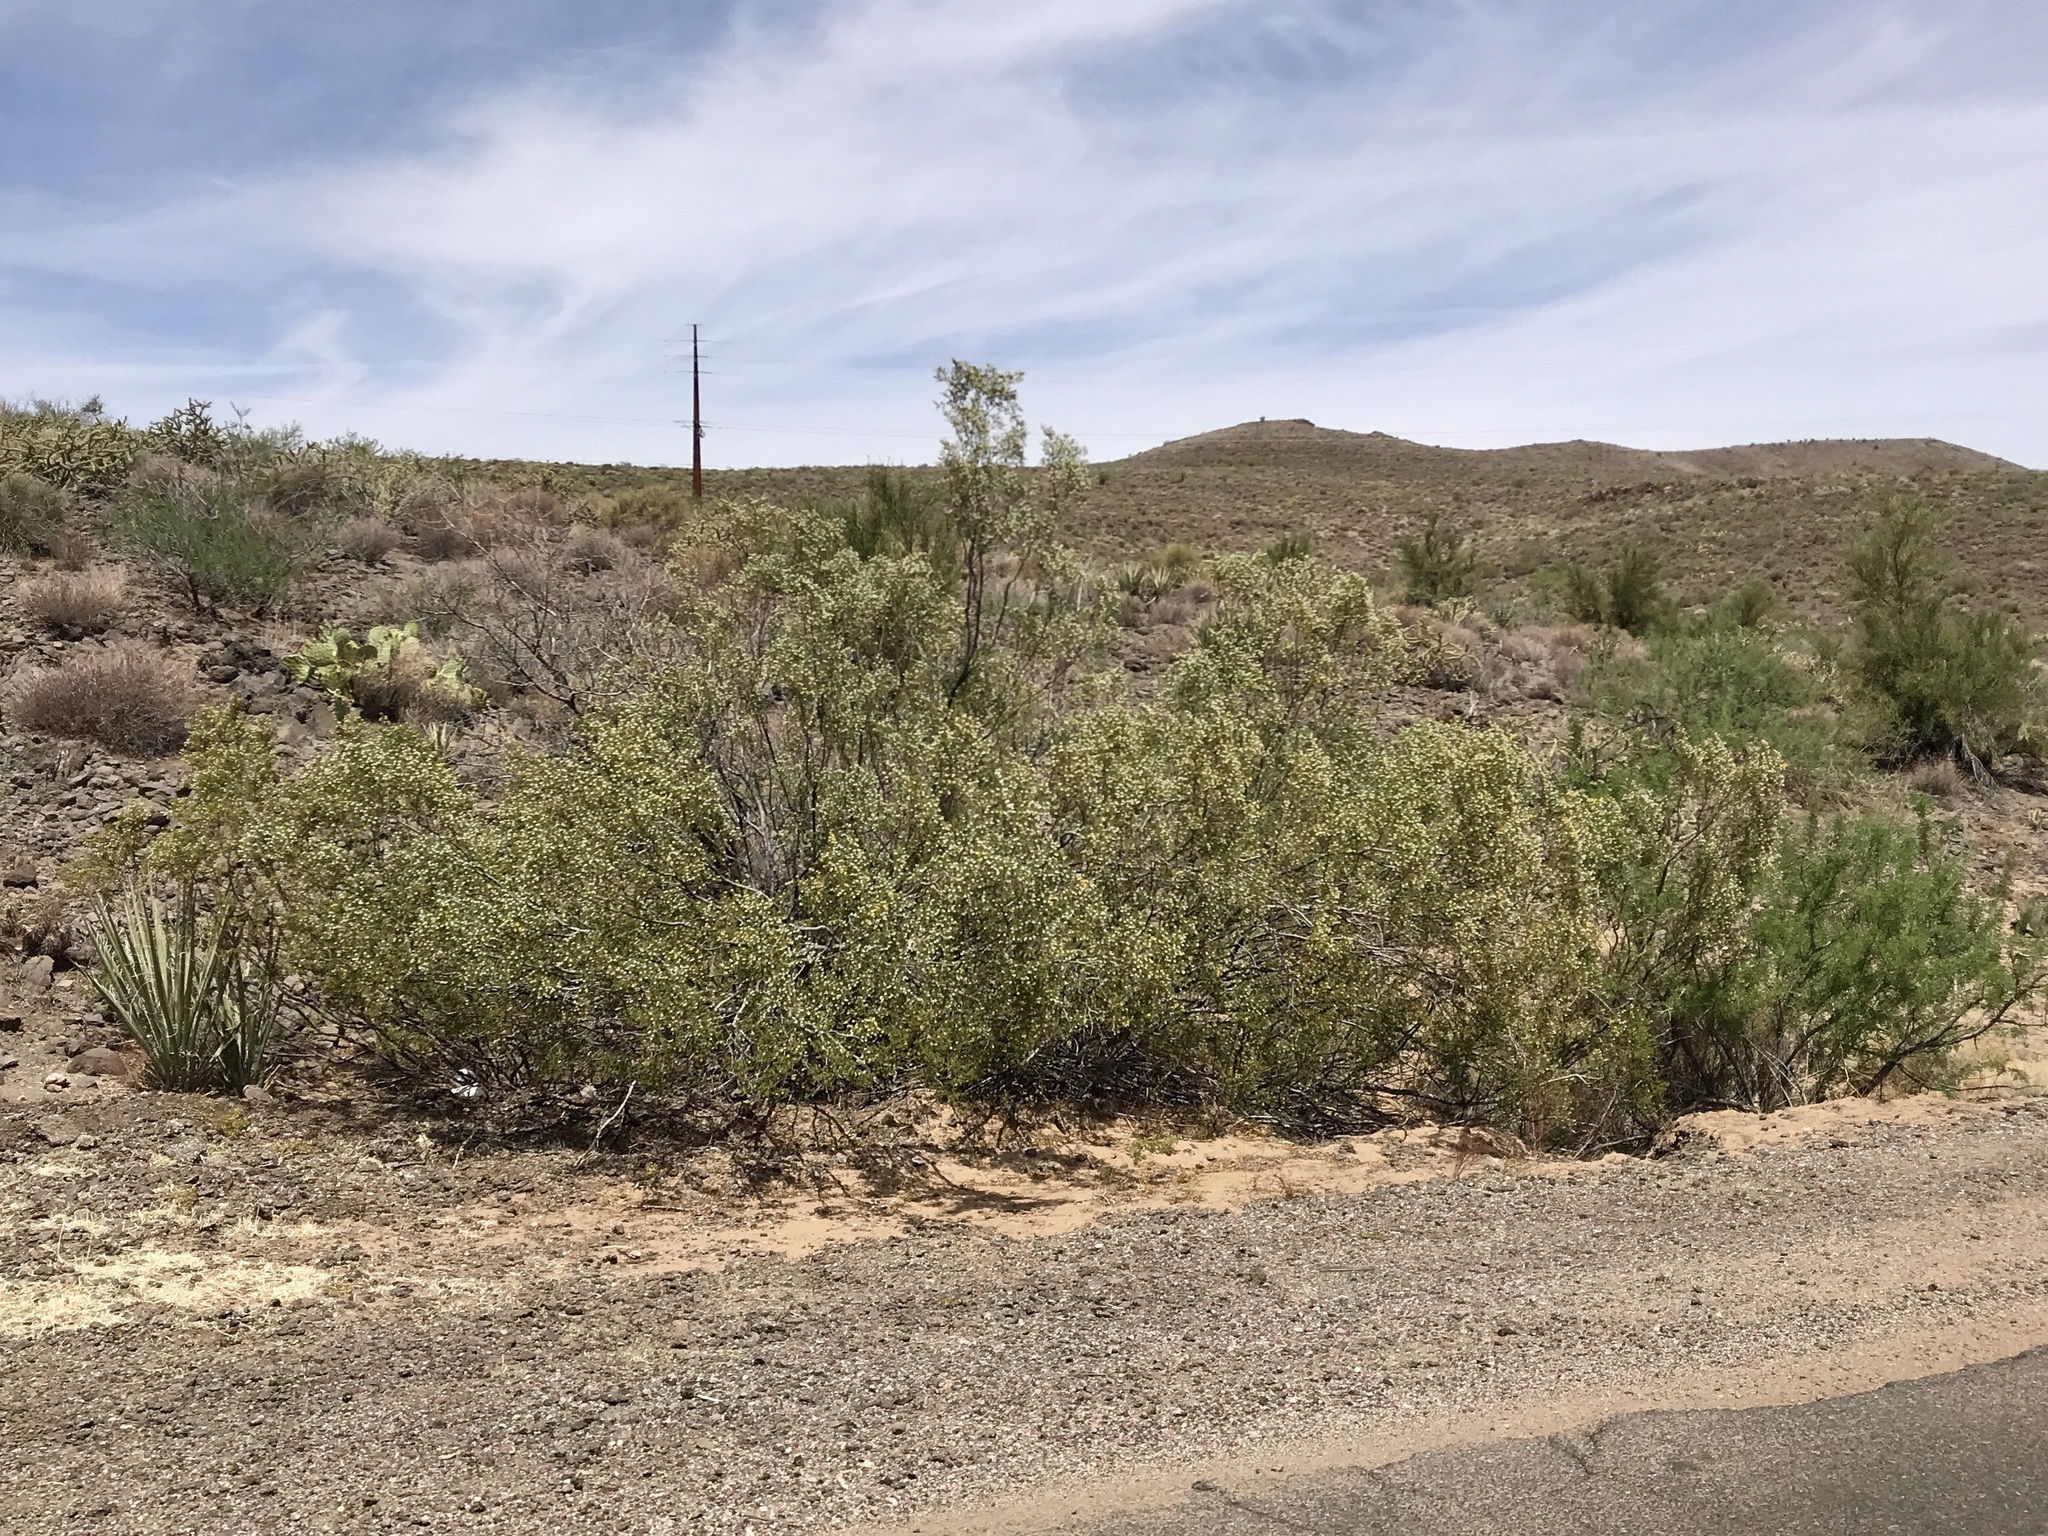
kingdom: Plantae
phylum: Tracheophyta
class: Magnoliopsida
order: Zygophyllales
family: Zygophyllaceae
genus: Larrea
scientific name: Larrea tridentata
